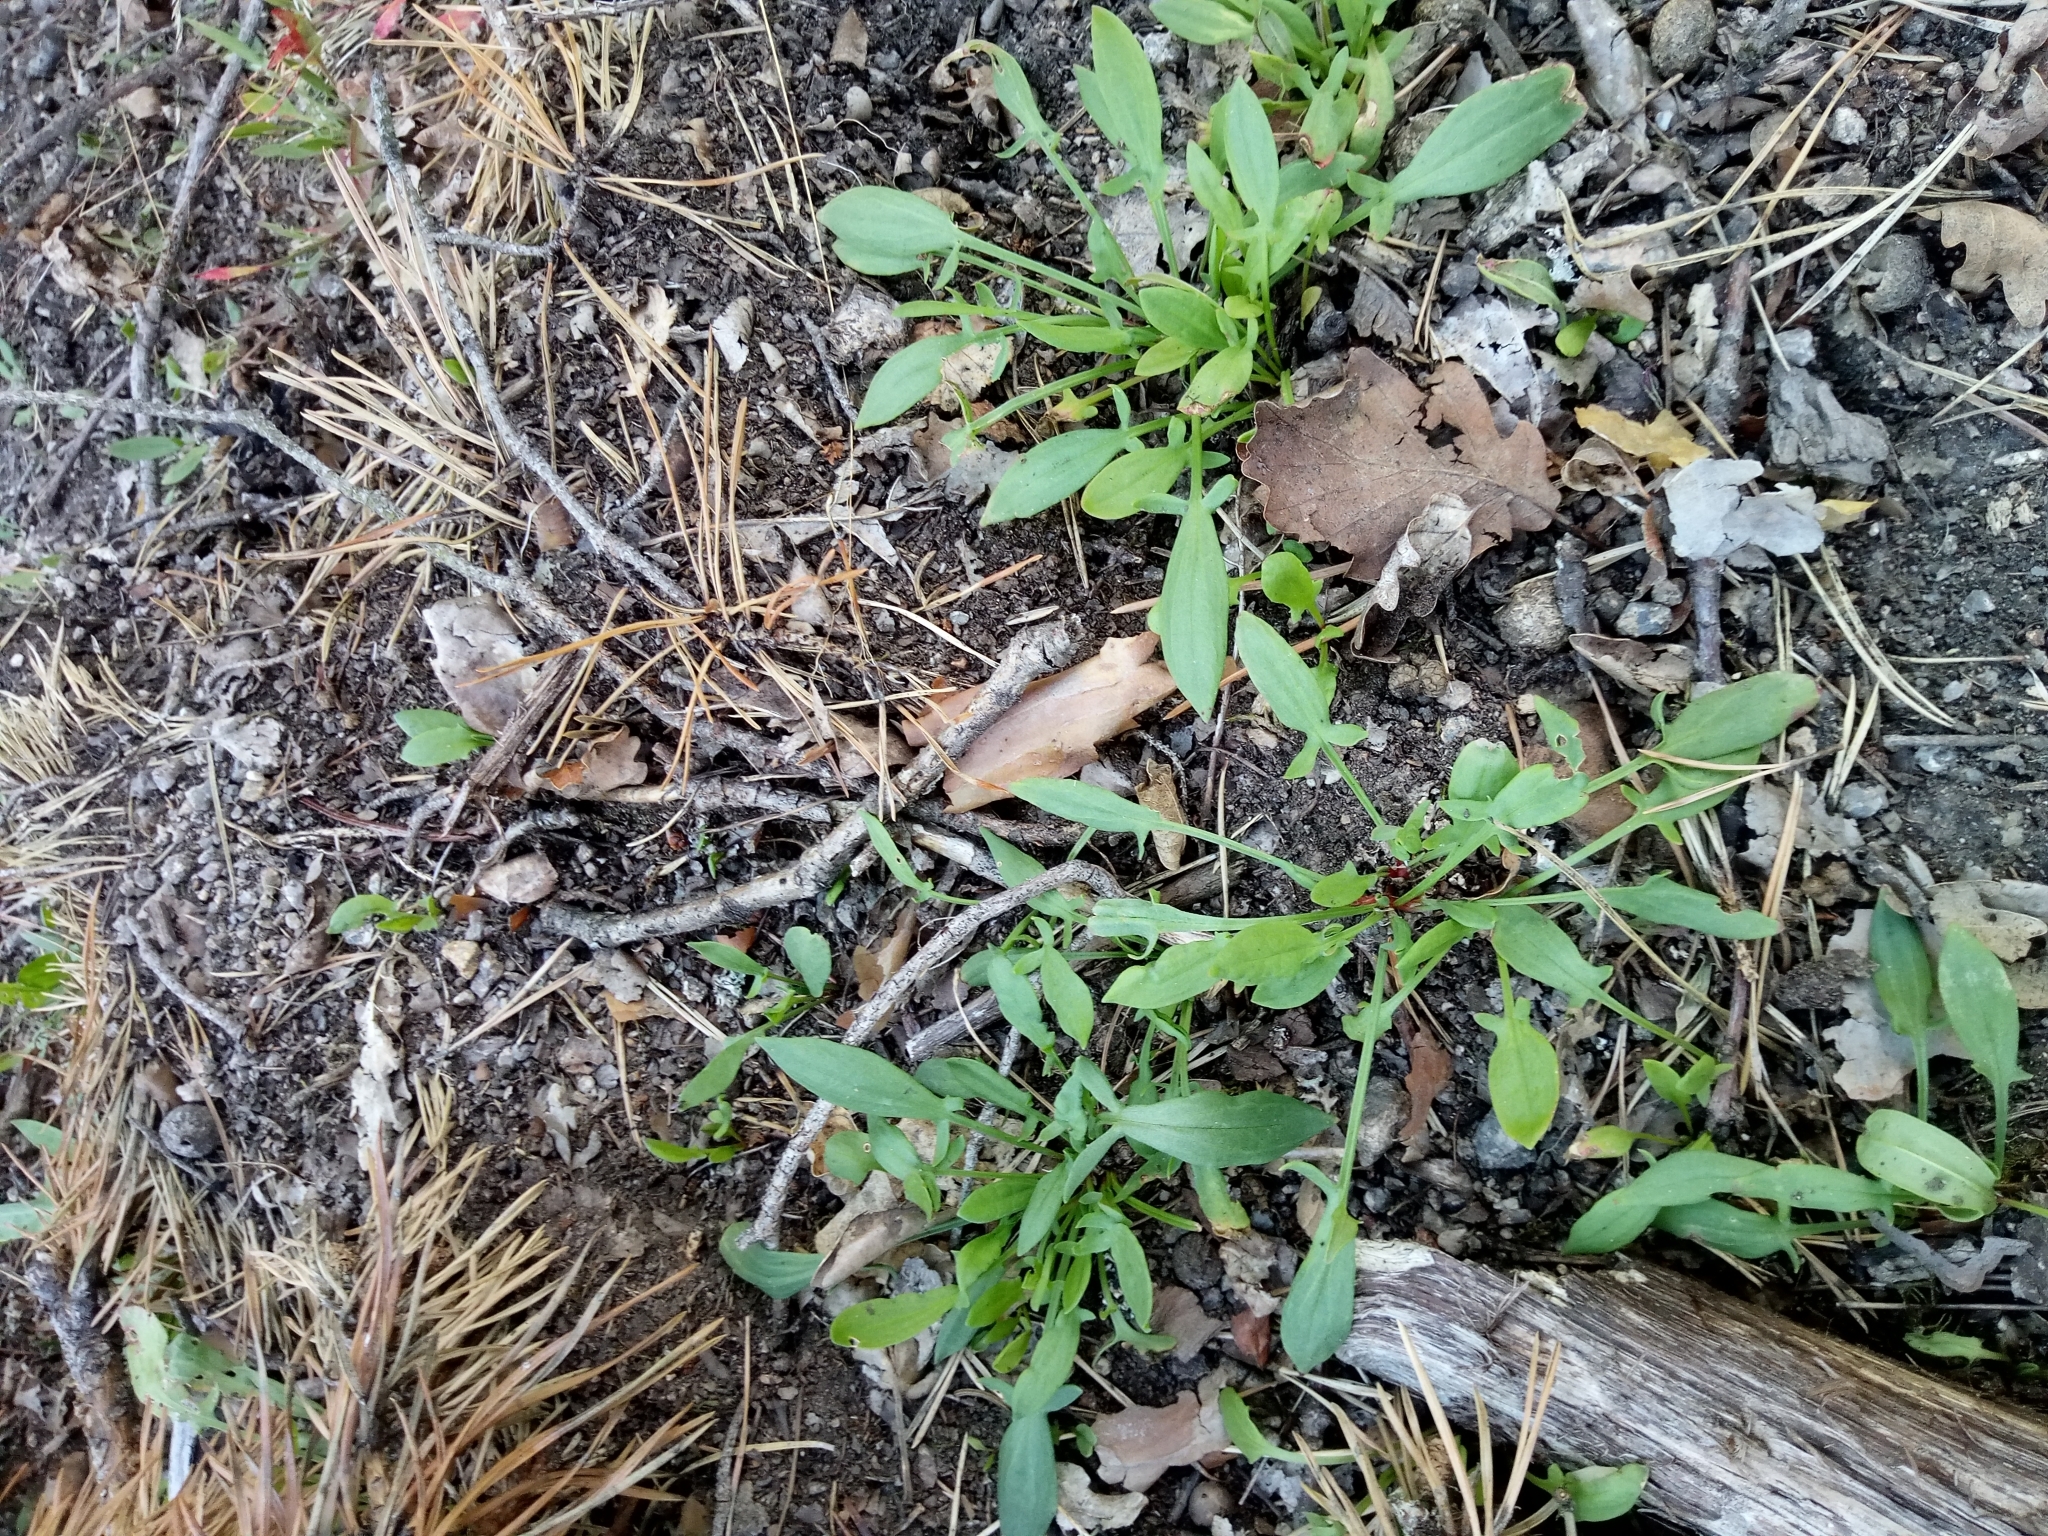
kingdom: Plantae
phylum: Tracheophyta
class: Magnoliopsida
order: Caryophyllales
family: Polygonaceae
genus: Rumex
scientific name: Rumex acetosella
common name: Common sheep sorrel
